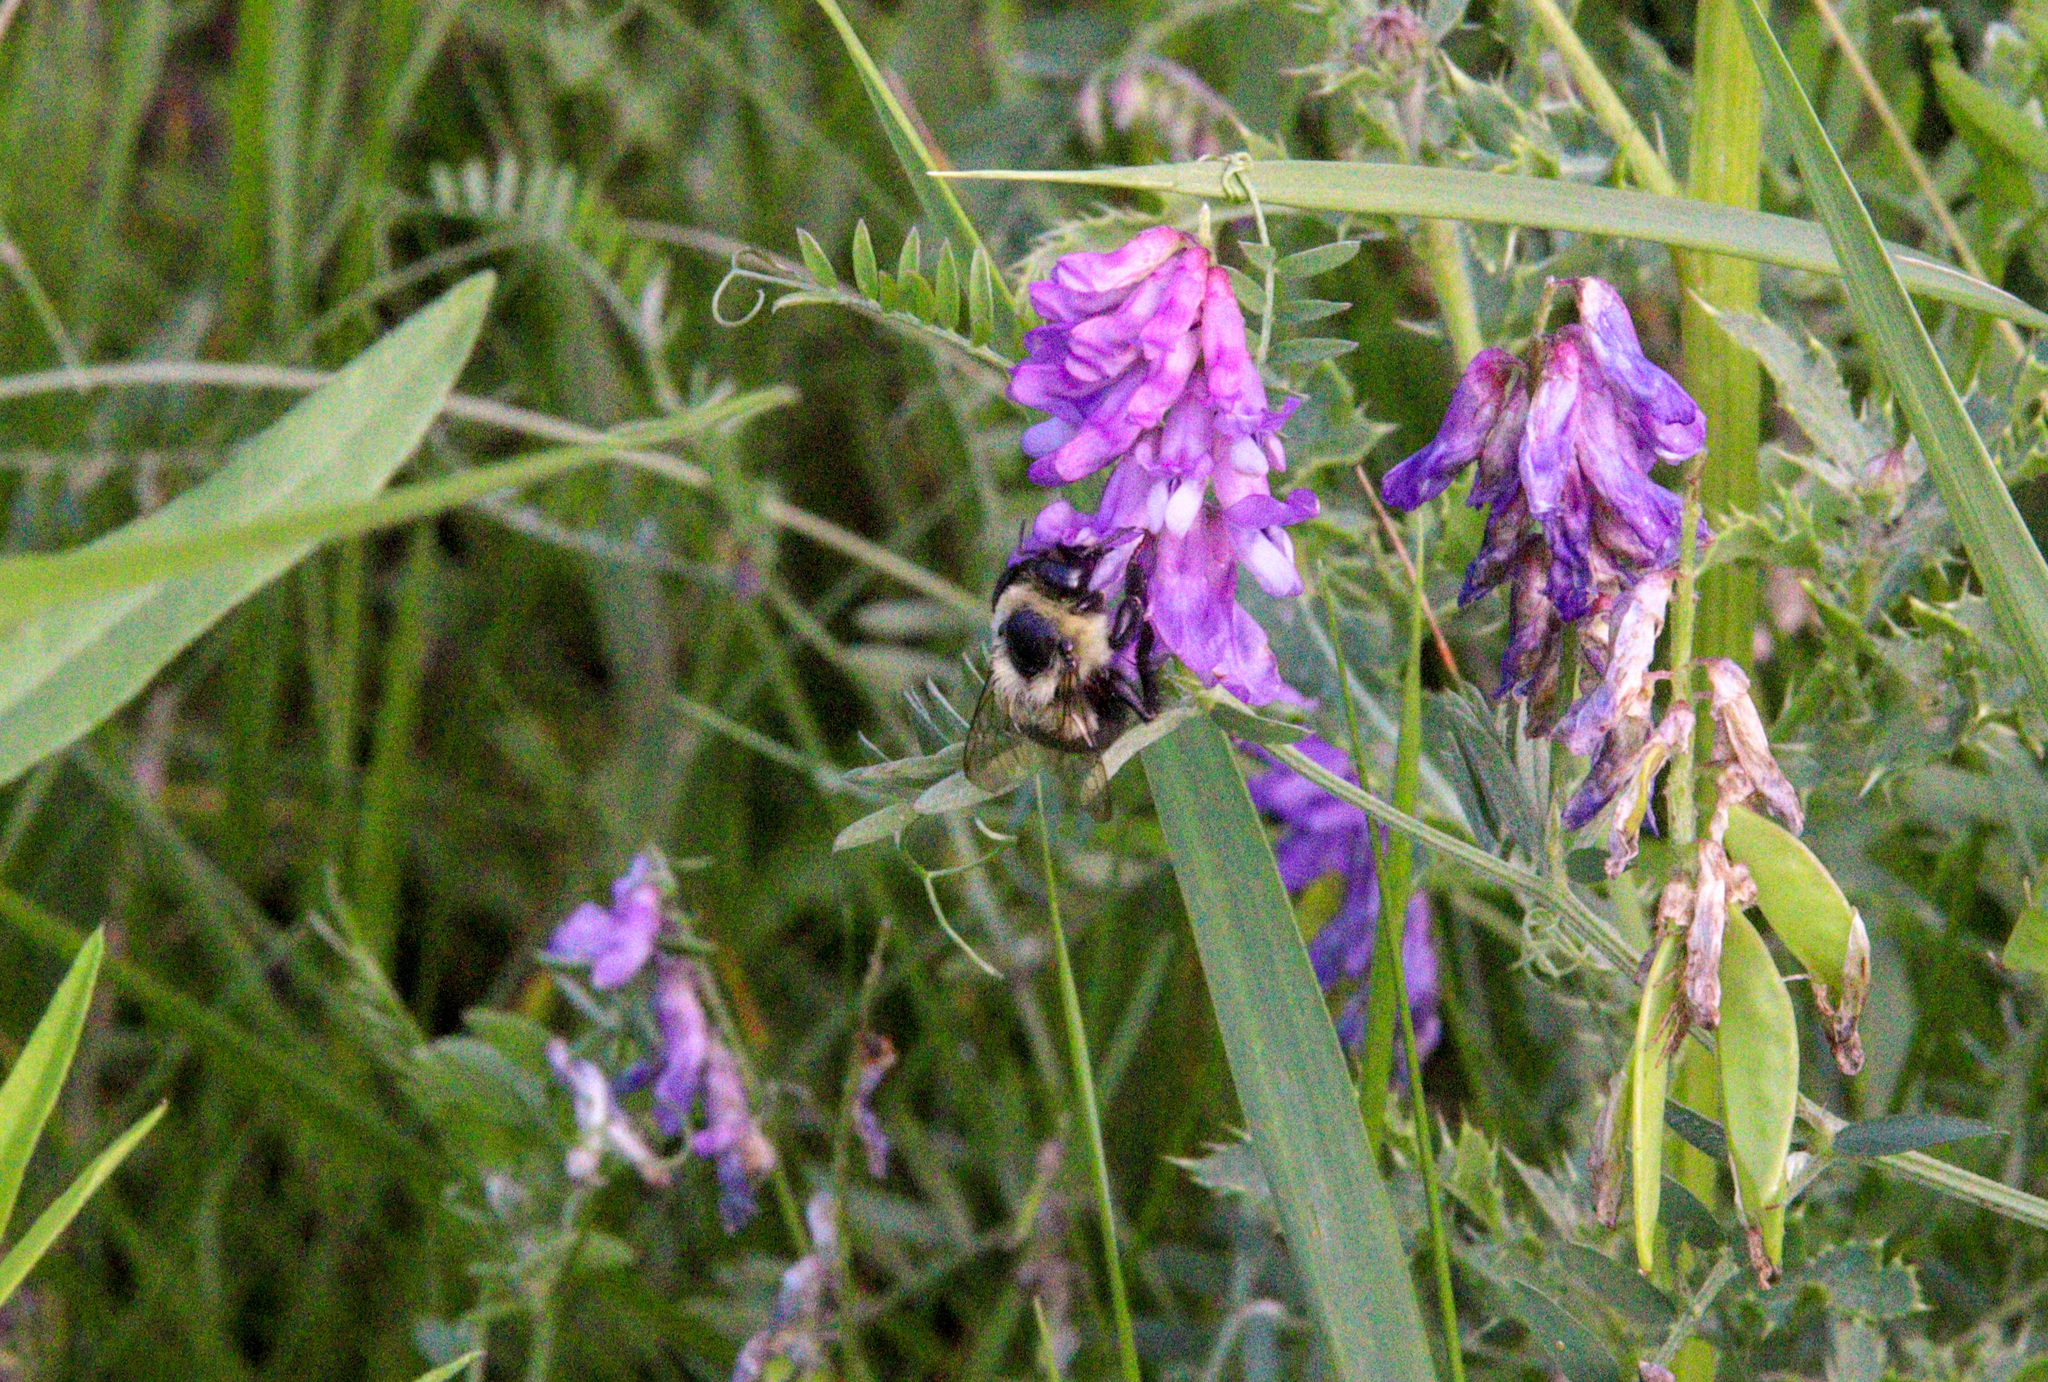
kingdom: Animalia
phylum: Arthropoda
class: Insecta
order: Hymenoptera
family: Apidae
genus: Bombus
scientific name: Bombus impatiens
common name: Common eastern bumble bee
